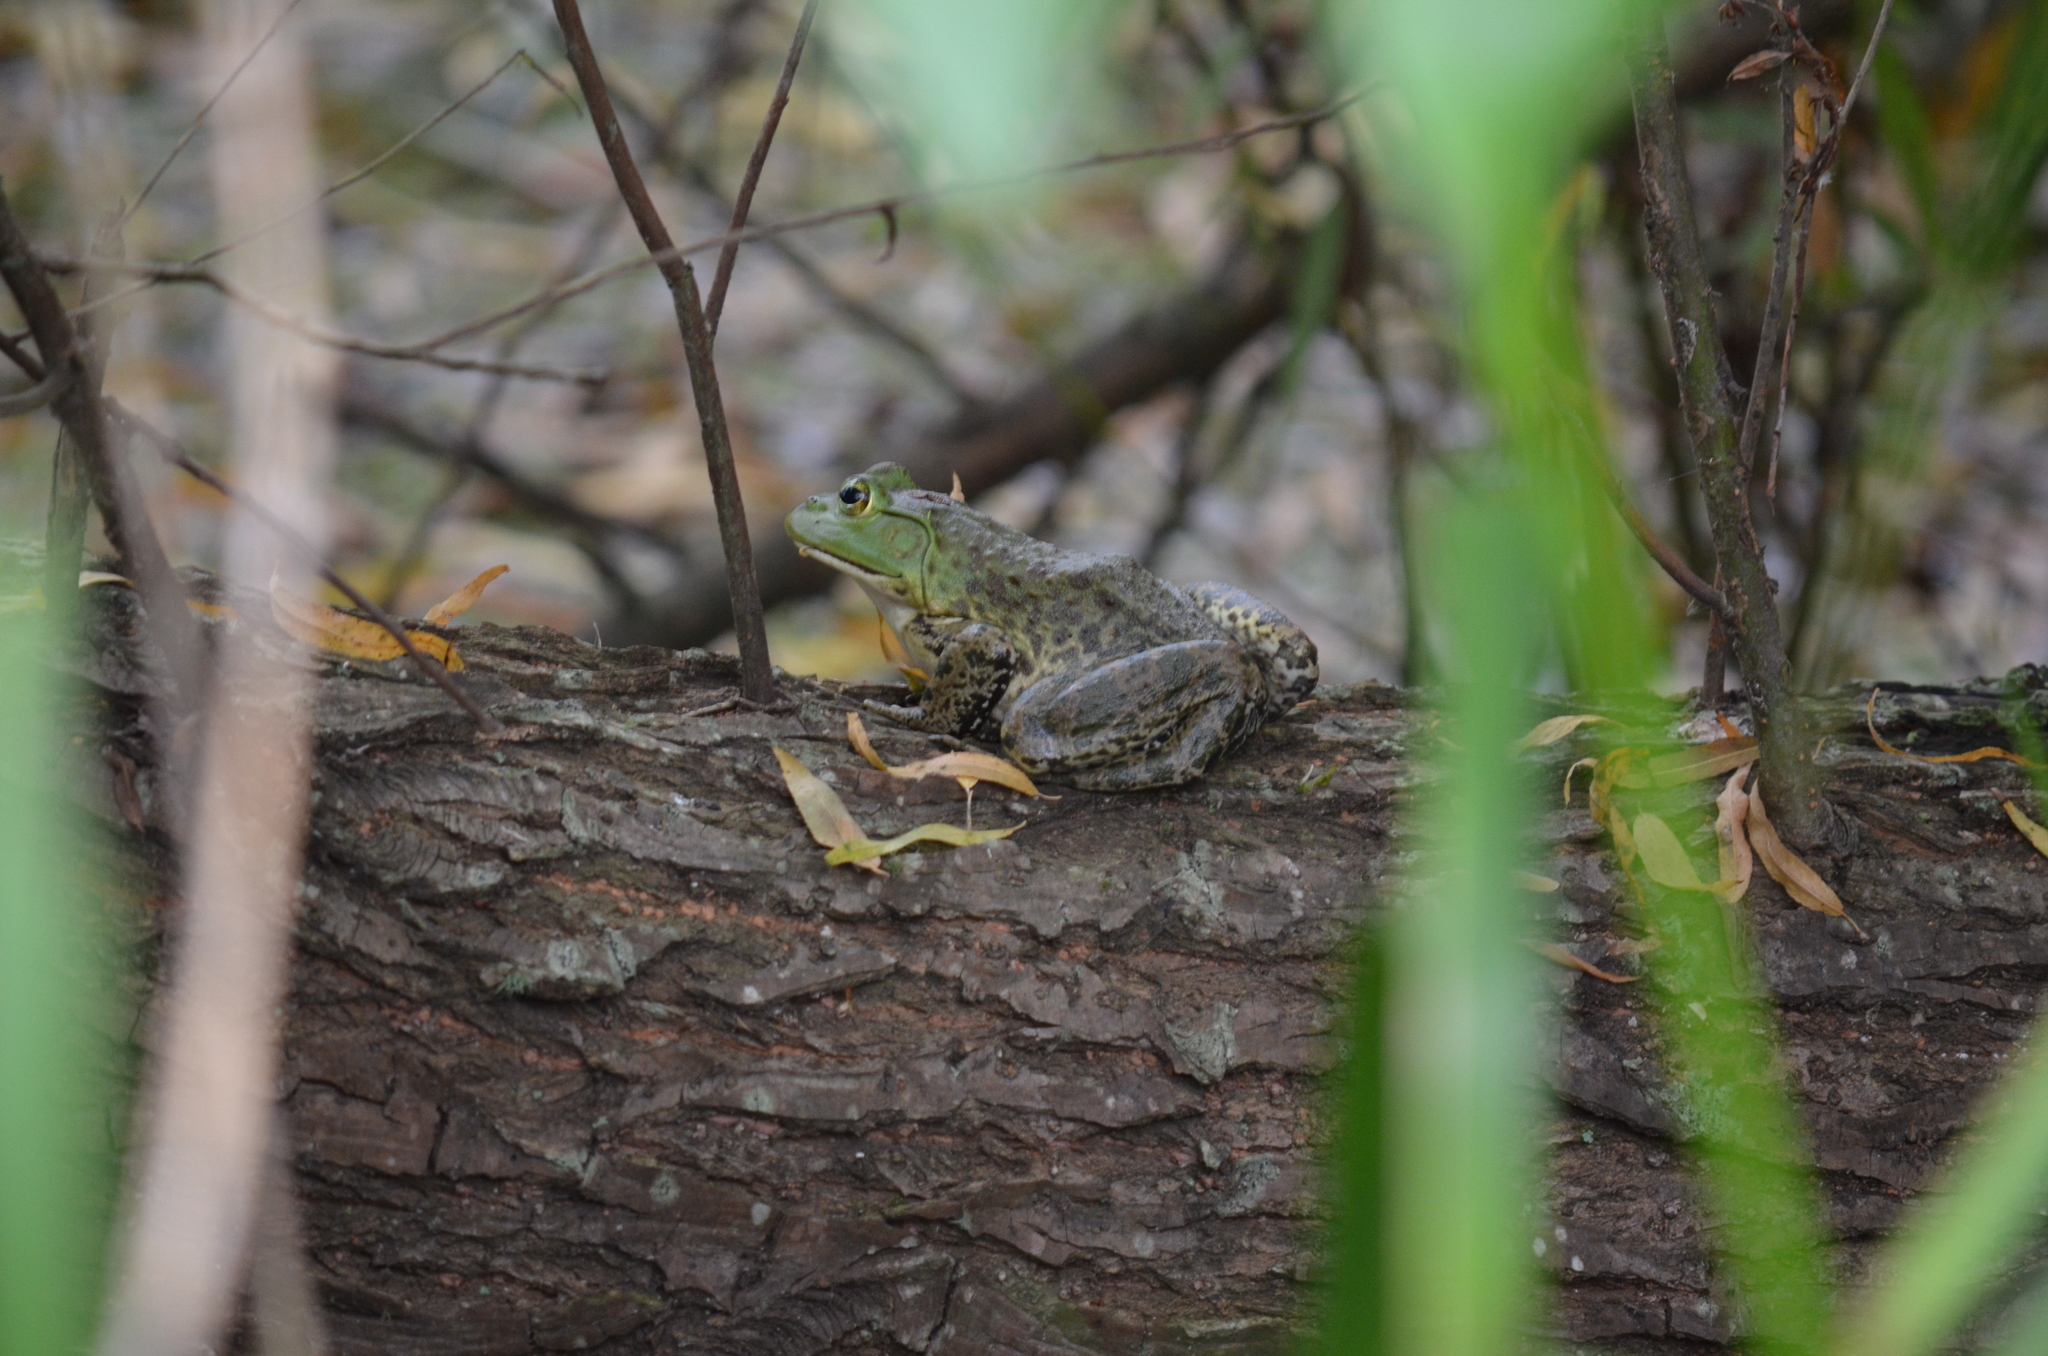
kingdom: Animalia
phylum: Chordata
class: Amphibia
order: Anura
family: Ranidae
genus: Lithobates
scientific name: Lithobates catesbeianus
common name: American bullfrog
